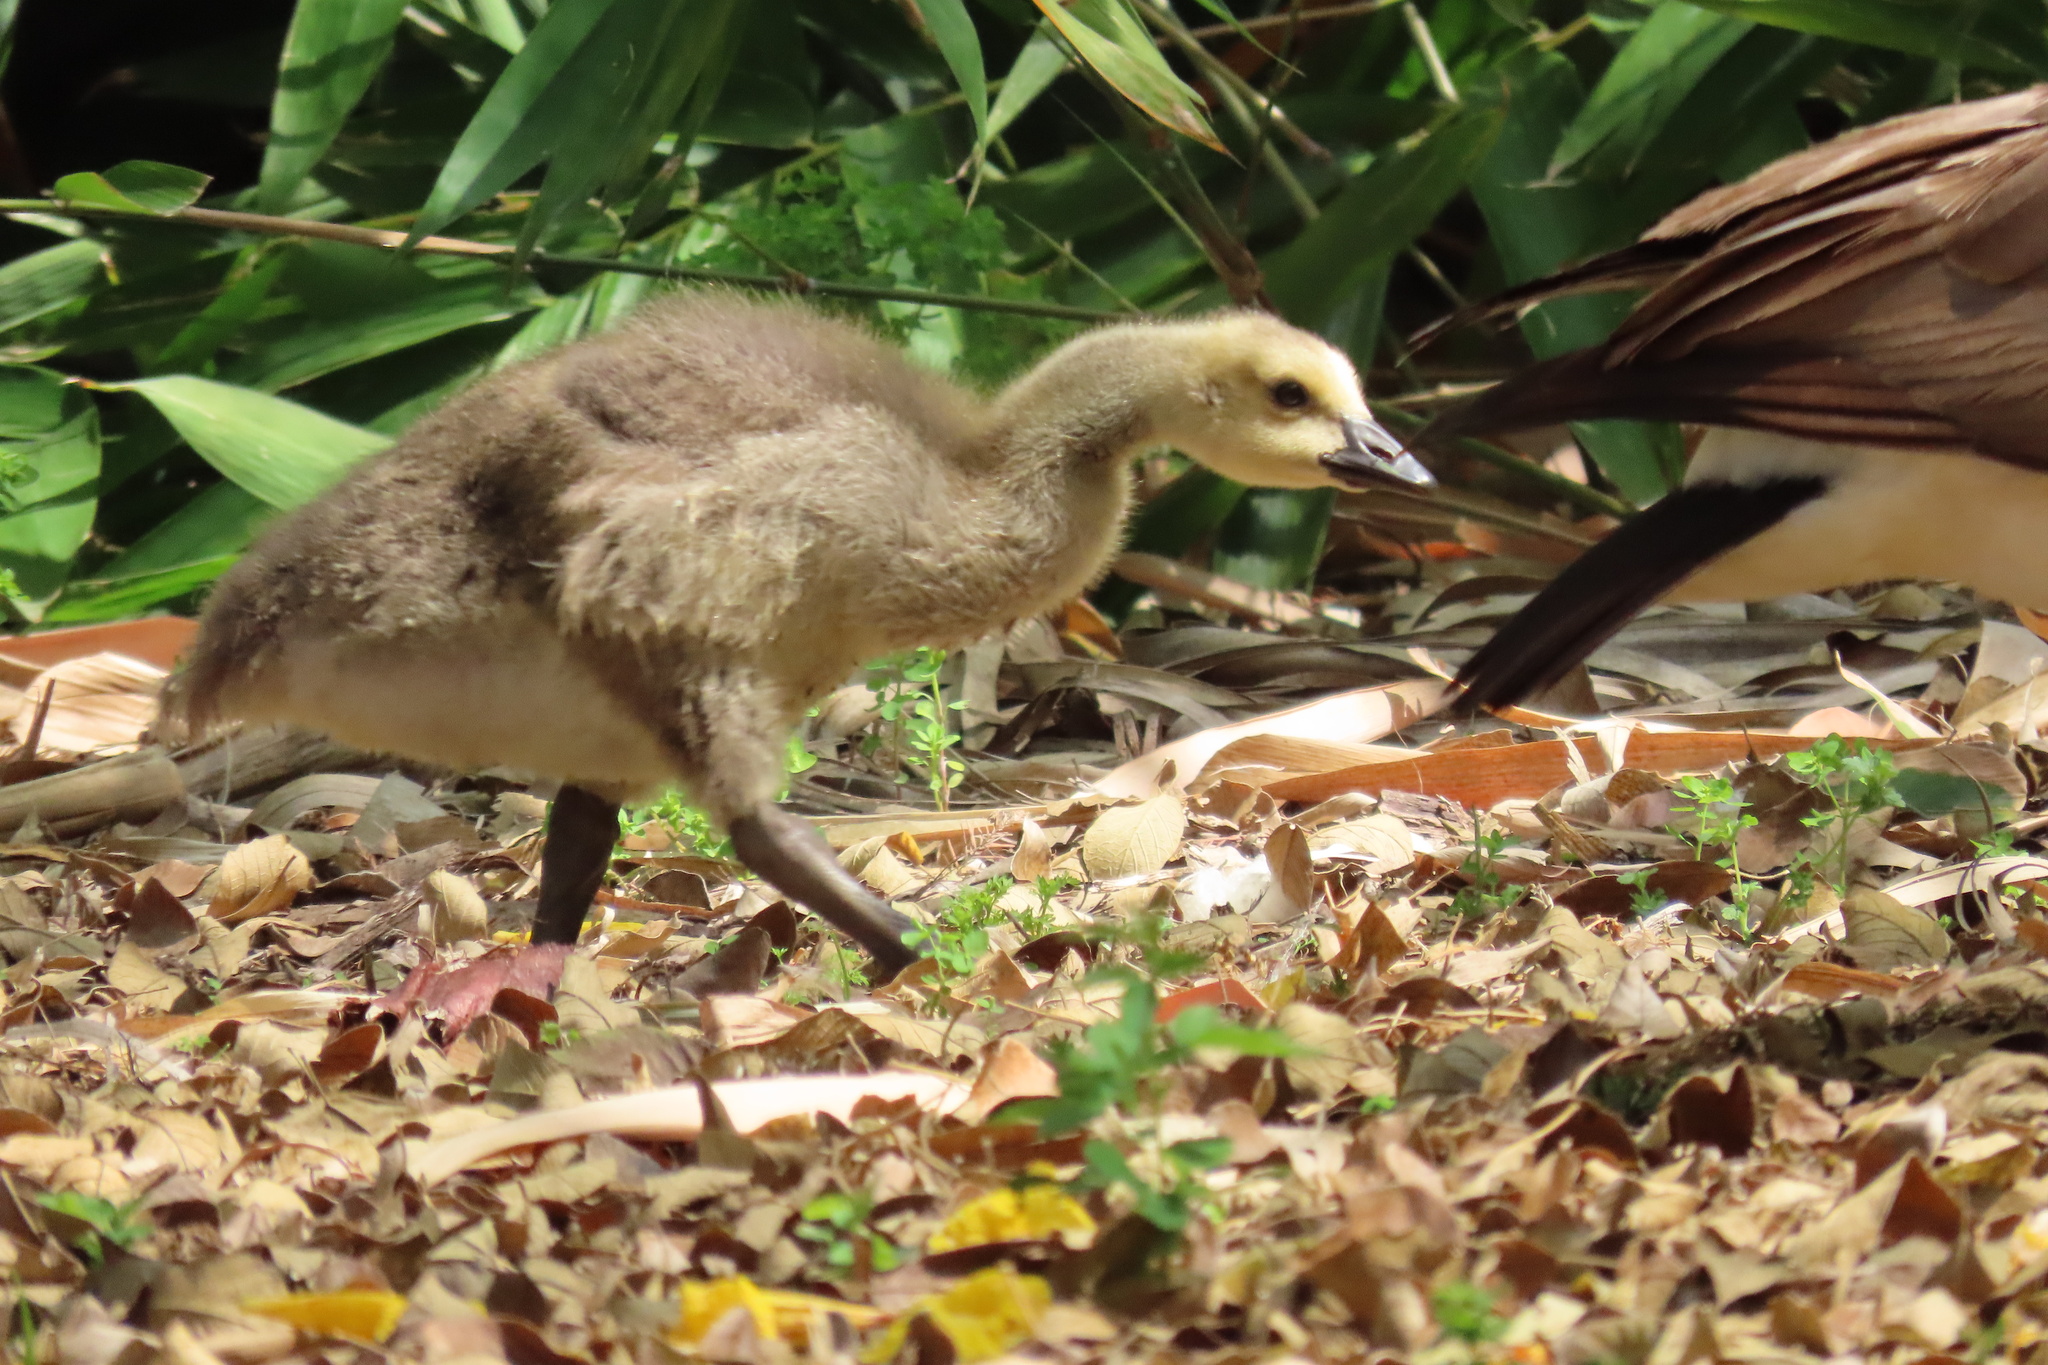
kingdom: Animalia
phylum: Chordata
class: Aves
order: Anseriformes
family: Anatidae
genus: Branta
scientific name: Branta canadensis
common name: Canada goose
